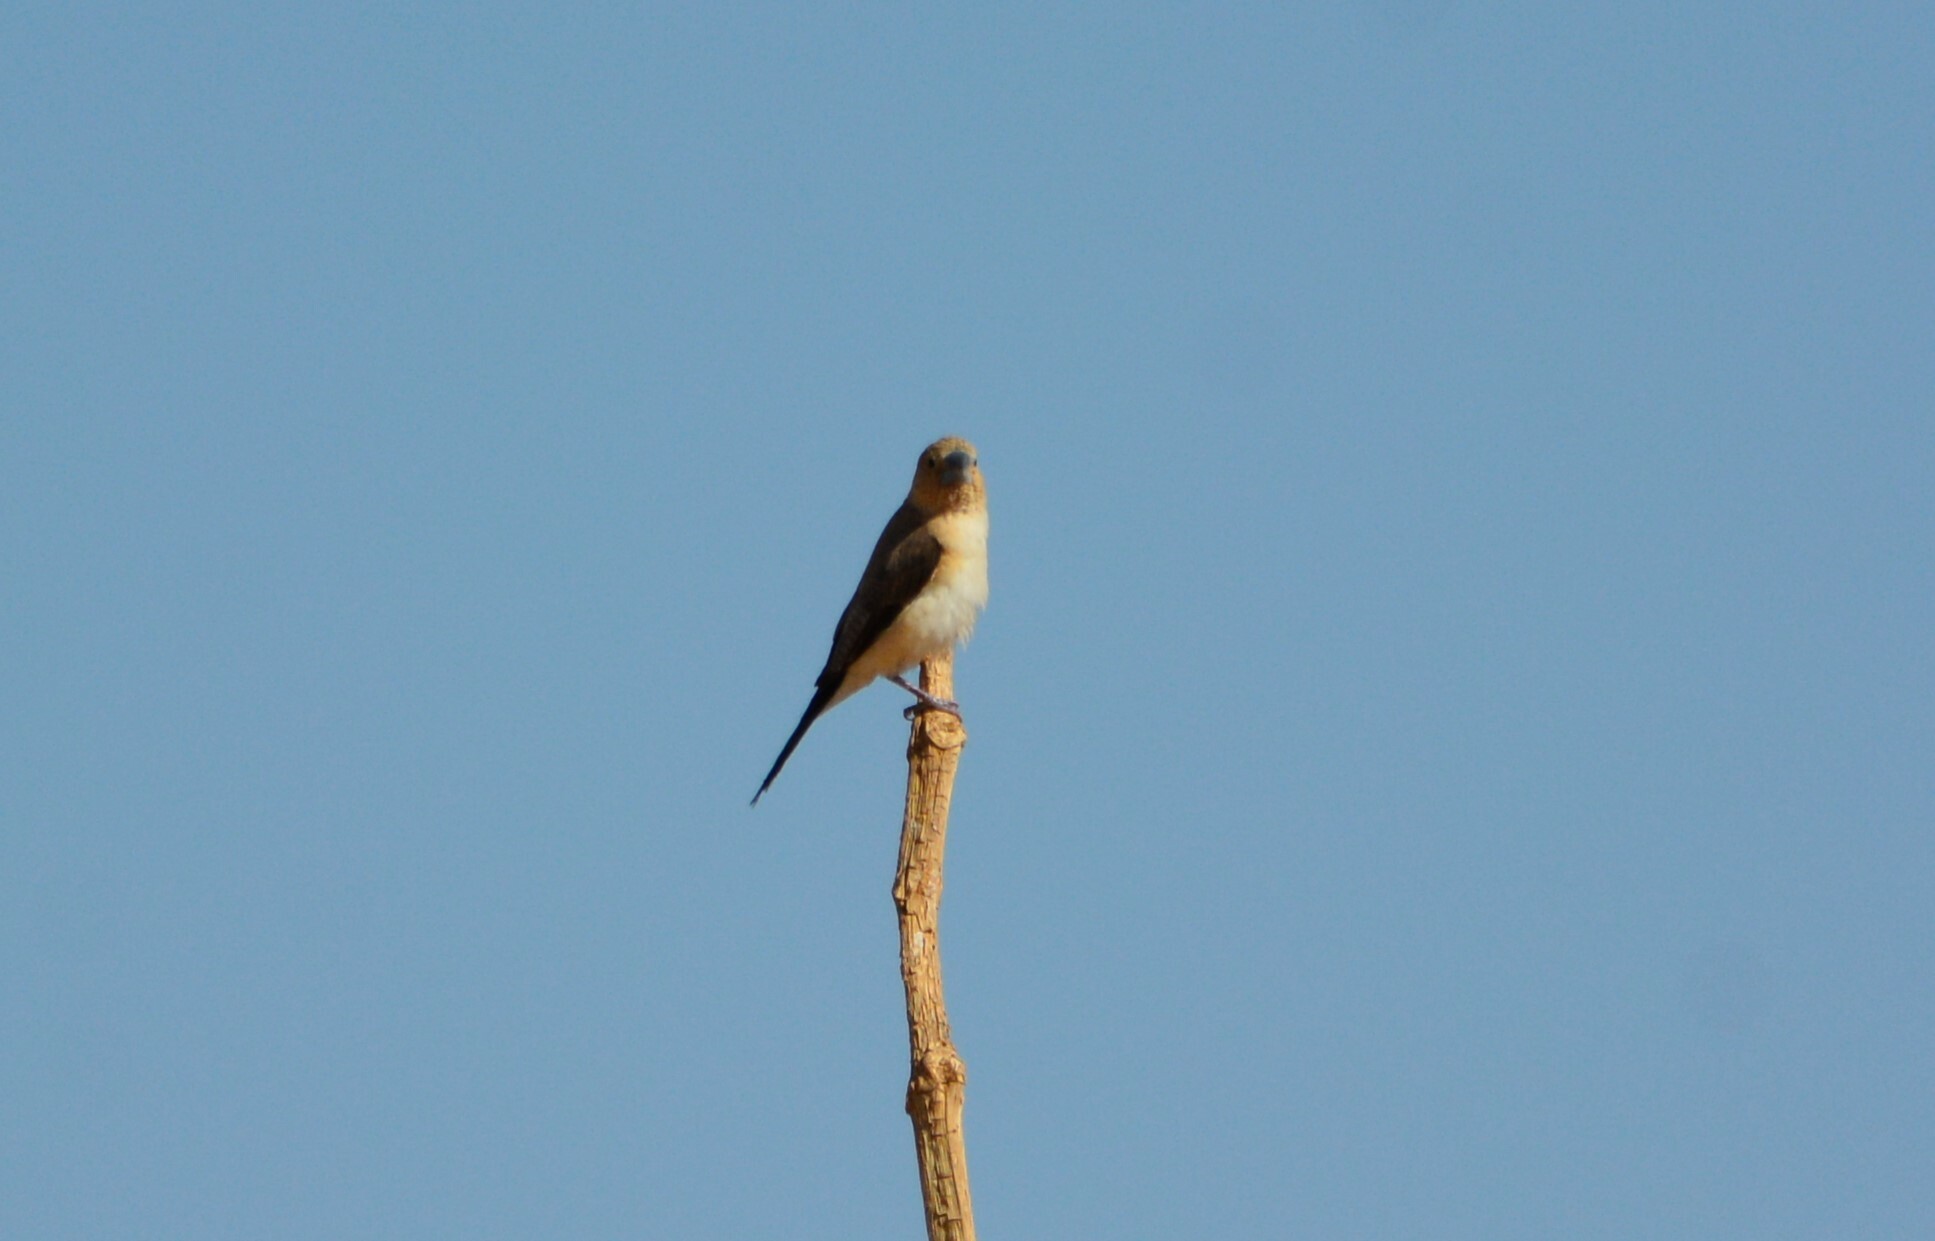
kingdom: Animalia
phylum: Chordata
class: Aves
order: Passeriformes
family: Estrildidae
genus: Euodice
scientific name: Euodice cantans
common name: African silverbill
